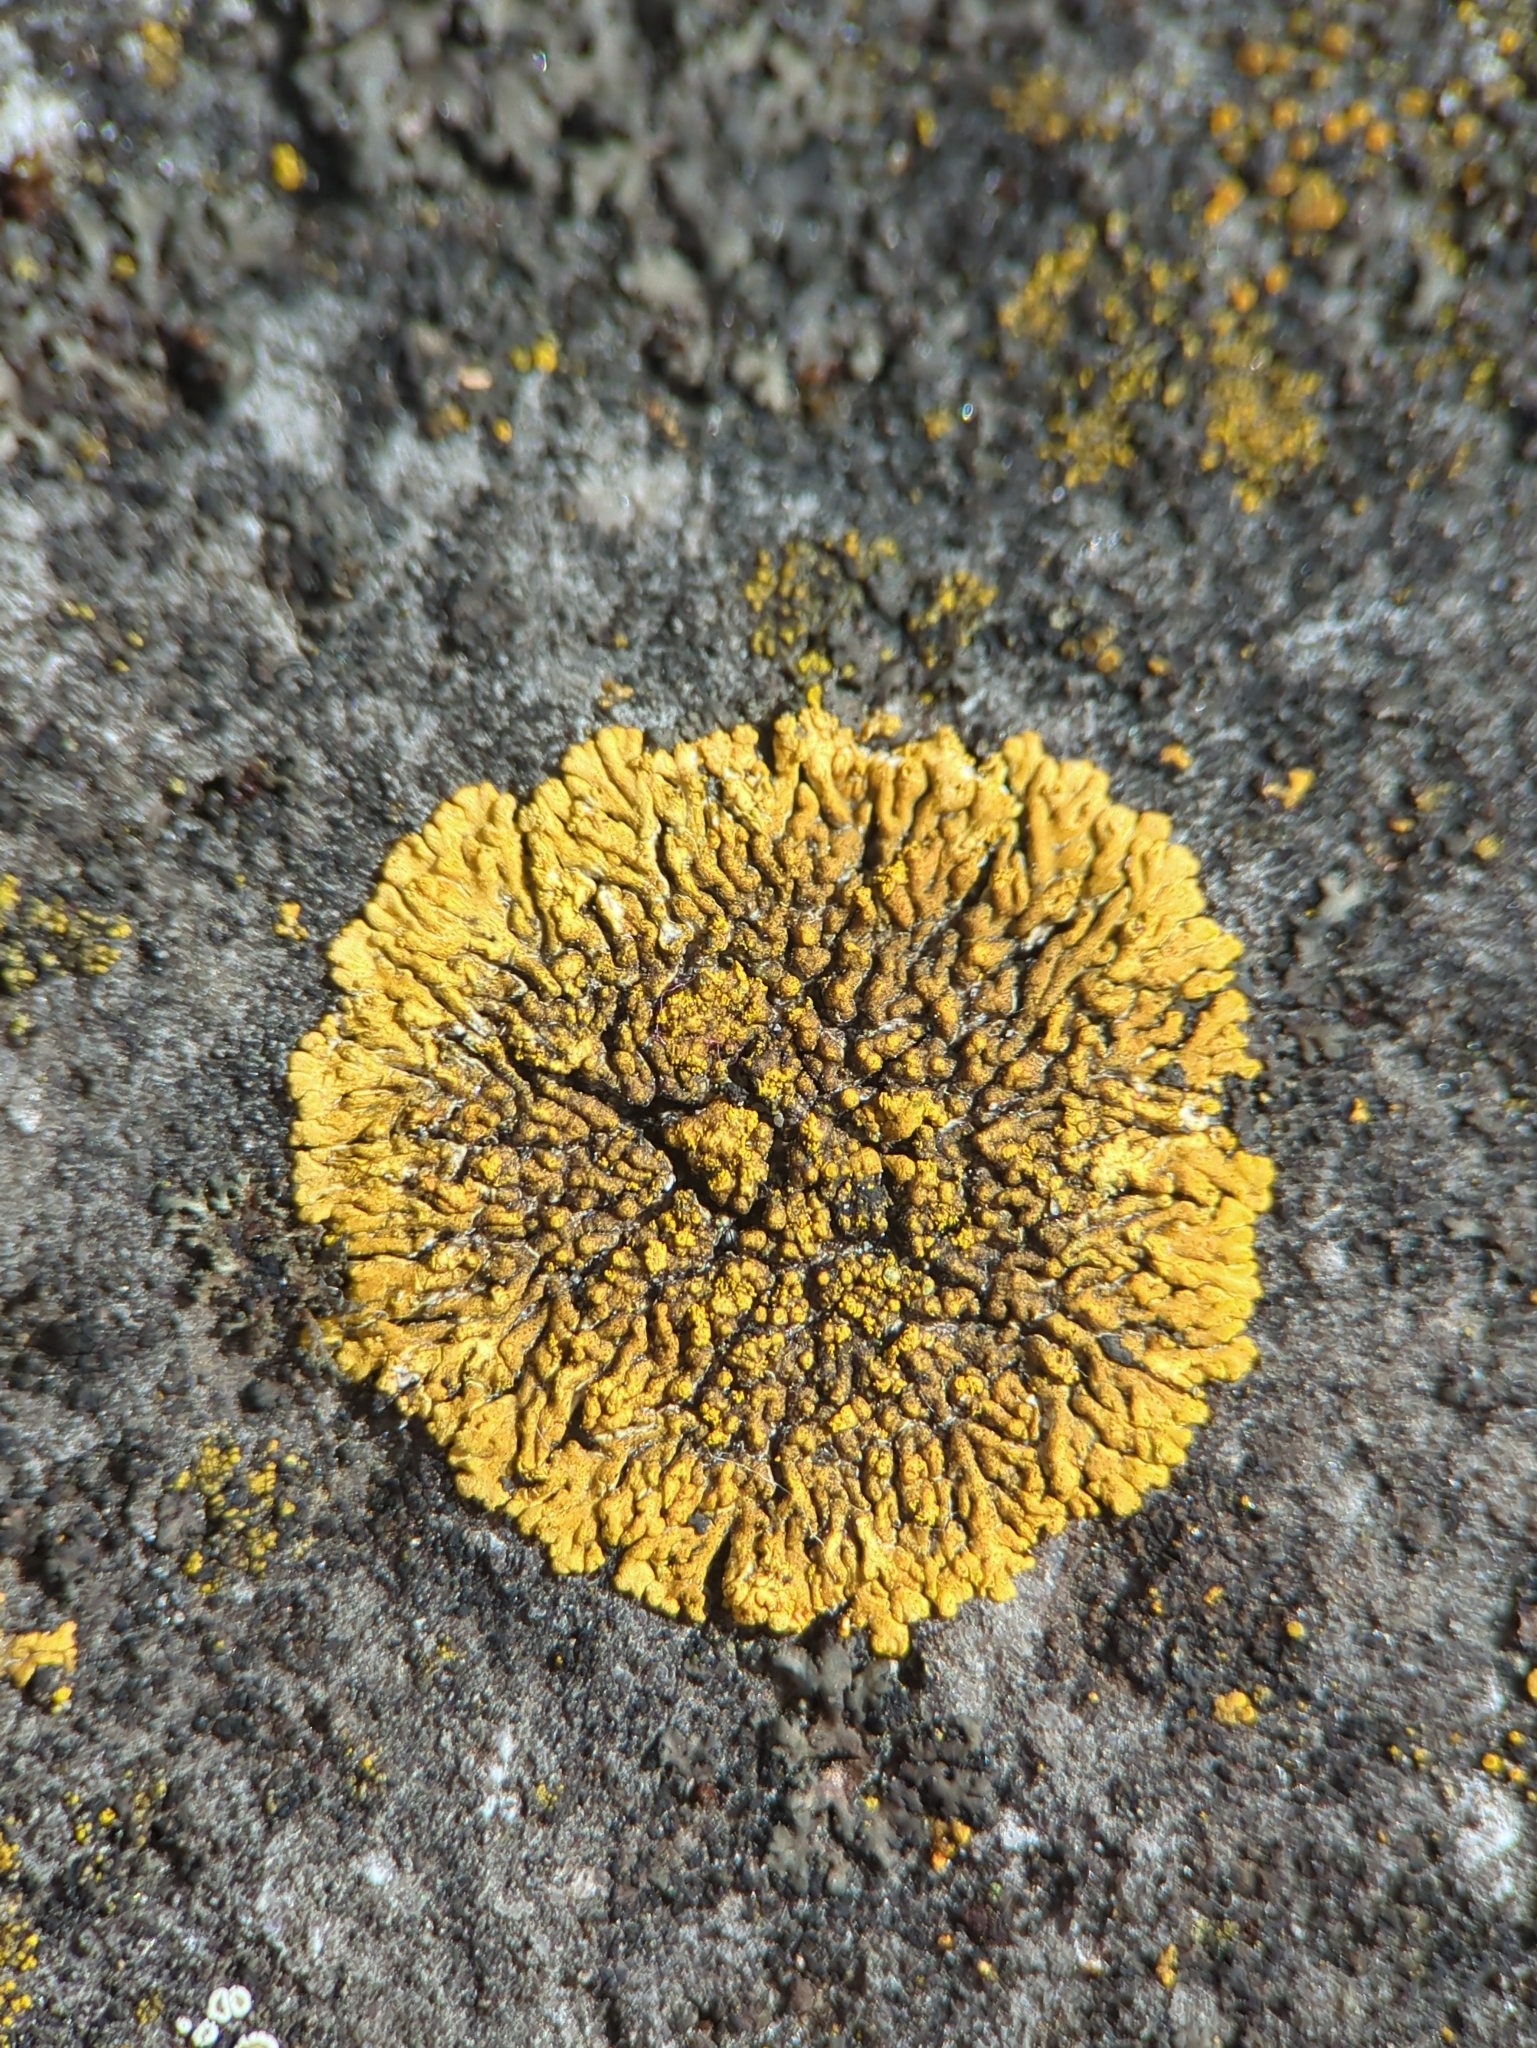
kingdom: Fungi
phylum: Ascomycota
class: Lecanoromycetes
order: Teloschistales
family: Teloschistaceae
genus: Calogaya
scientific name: Calogaya decipiens
